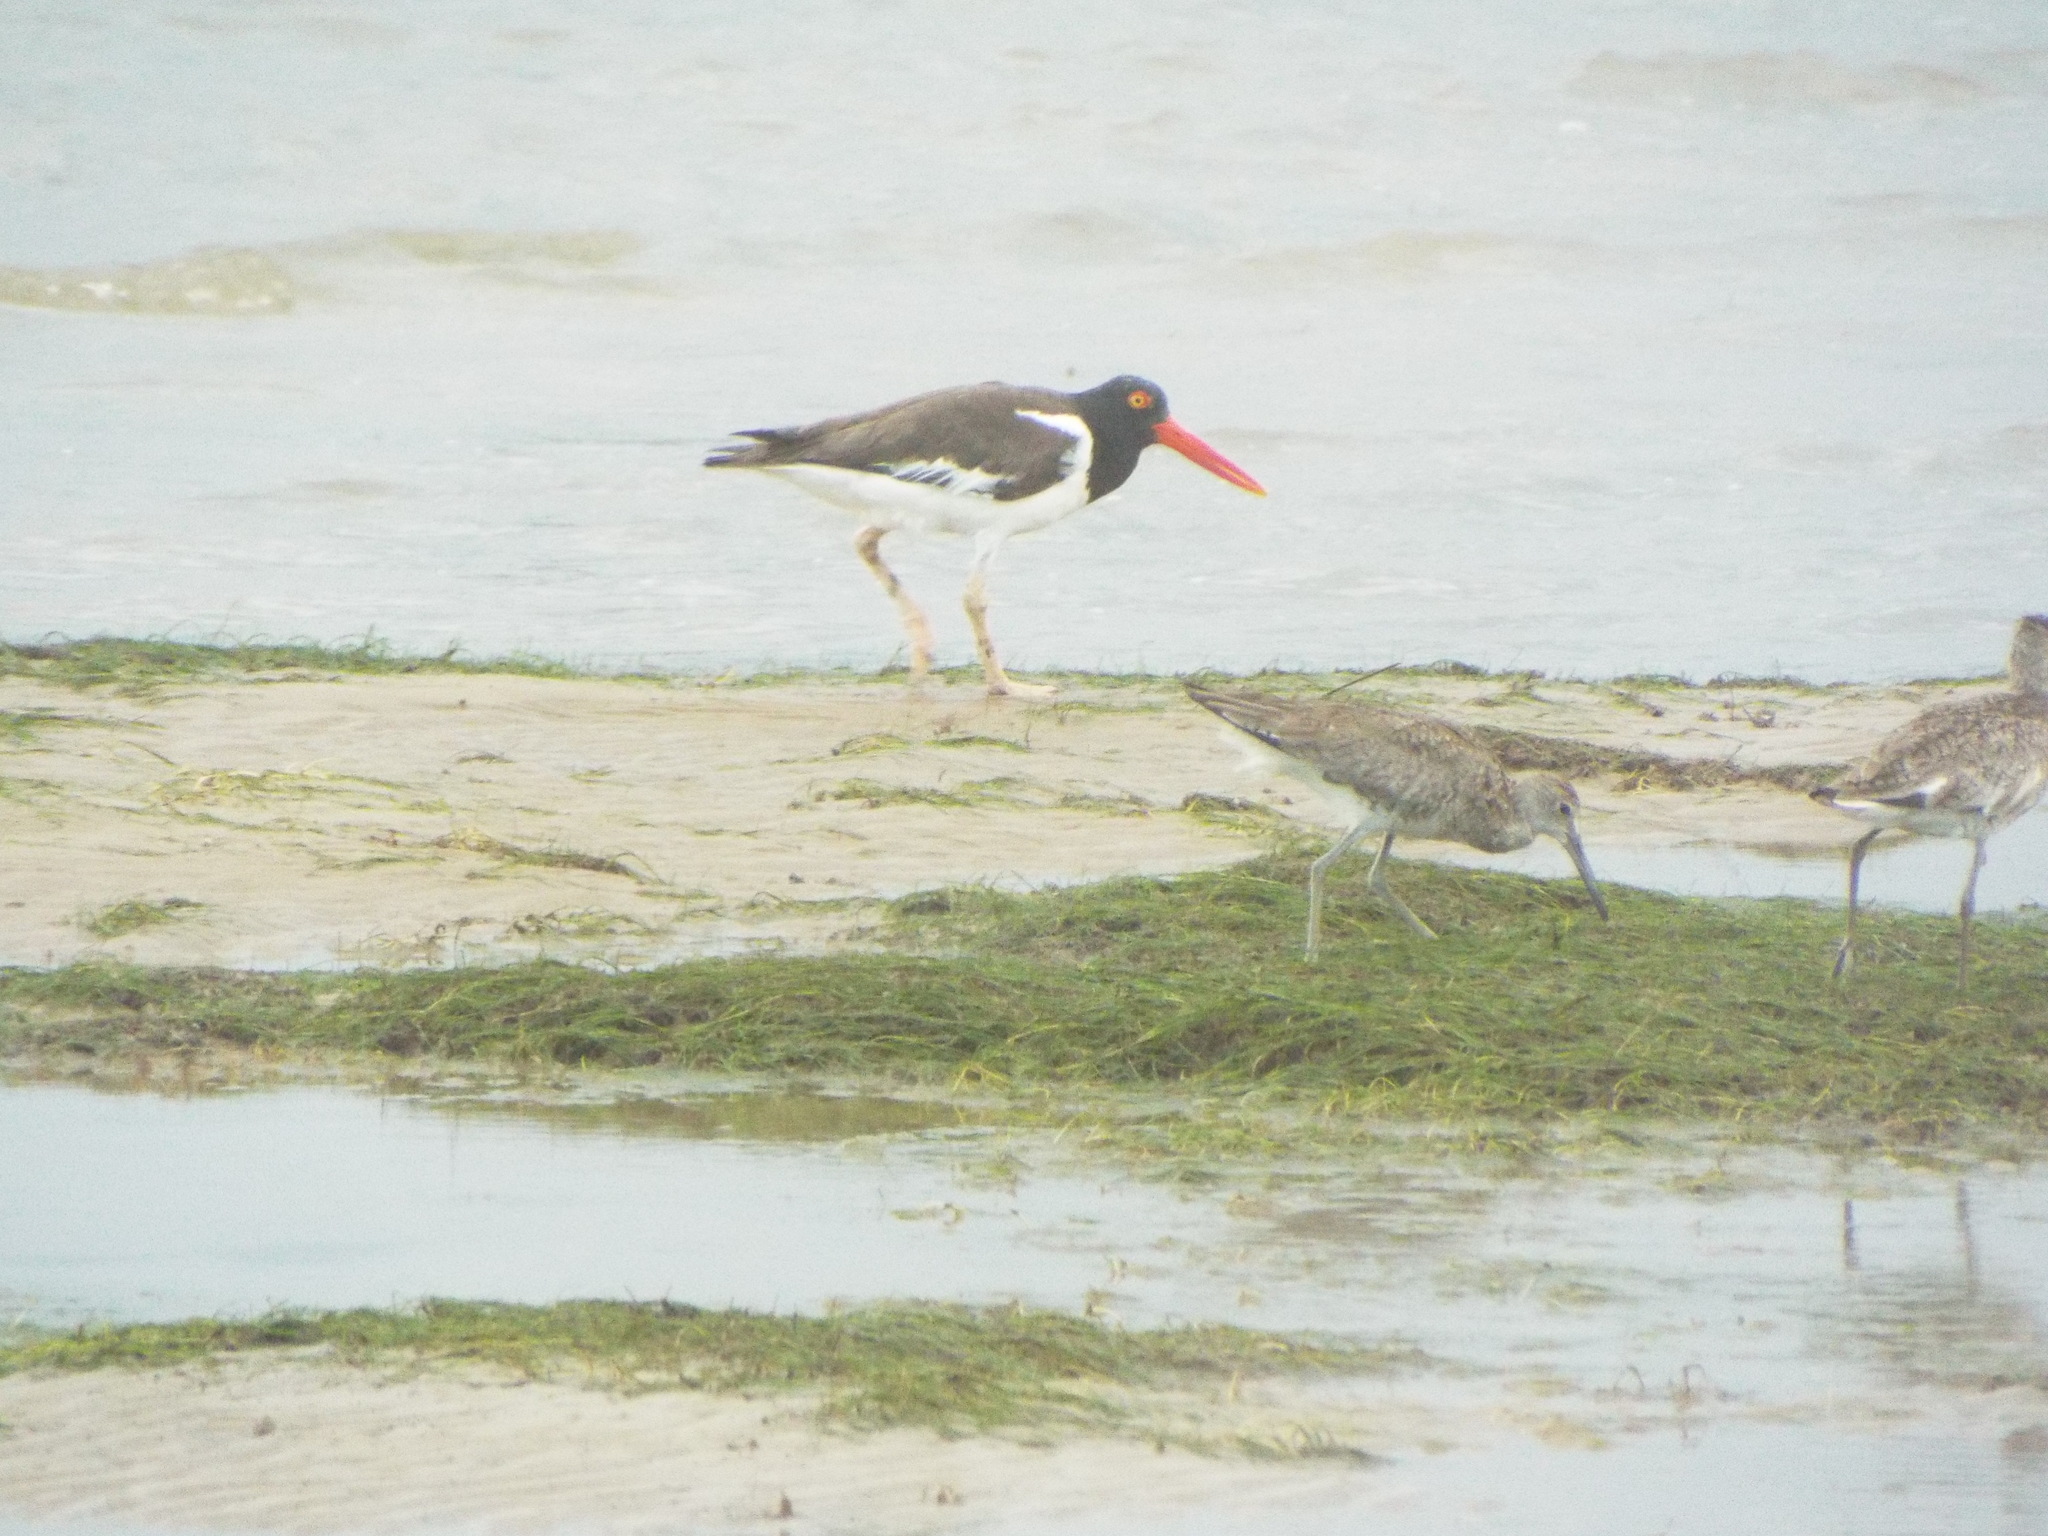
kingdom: Animalia
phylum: Chordata
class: Aves
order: Charadriiformes
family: Haematopodidae
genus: Haematopus
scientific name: Haematopus palliatus
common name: American oystercatcher
